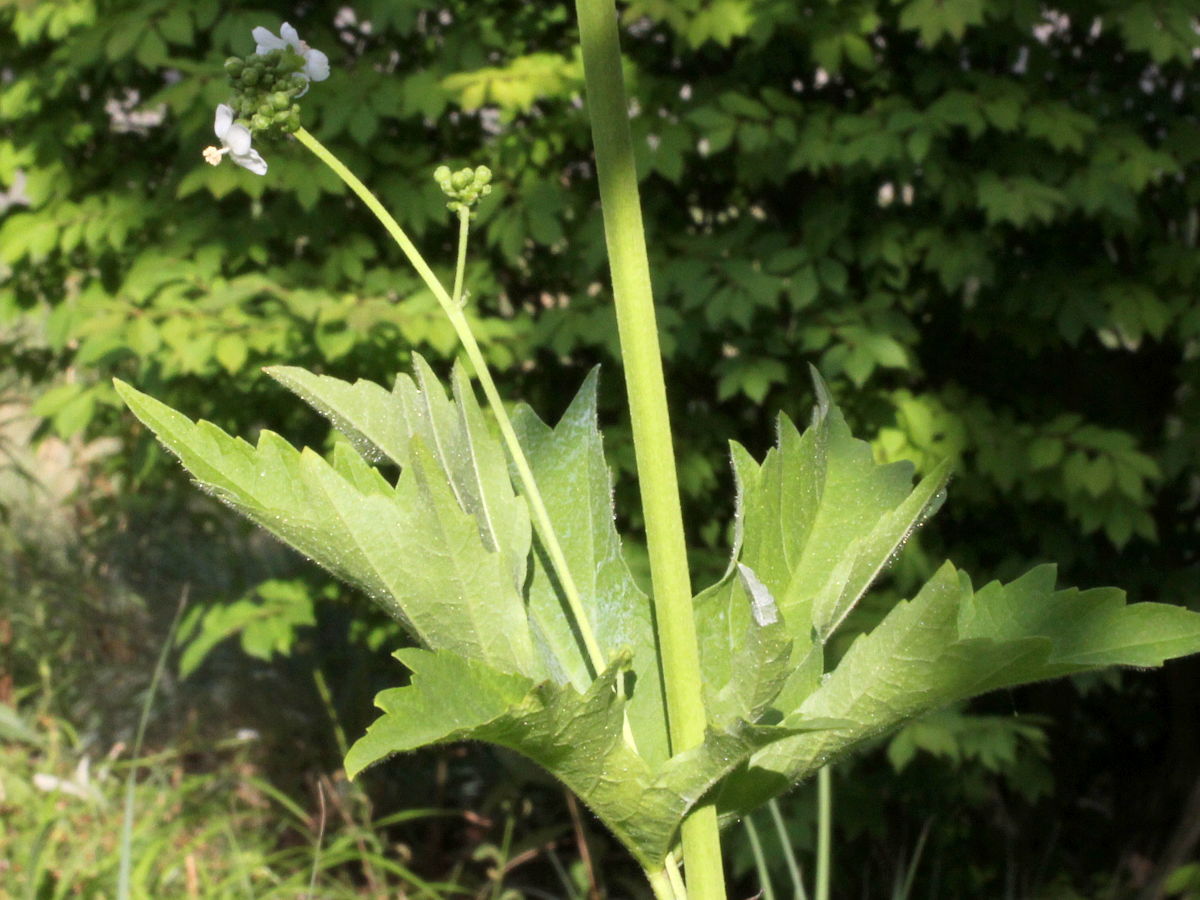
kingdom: Plantae
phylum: Tracheophyta
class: Magnoliopsida
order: Malvales
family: Malvaceae
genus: Napaea
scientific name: Napaea dioica
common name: Glade-mallow
